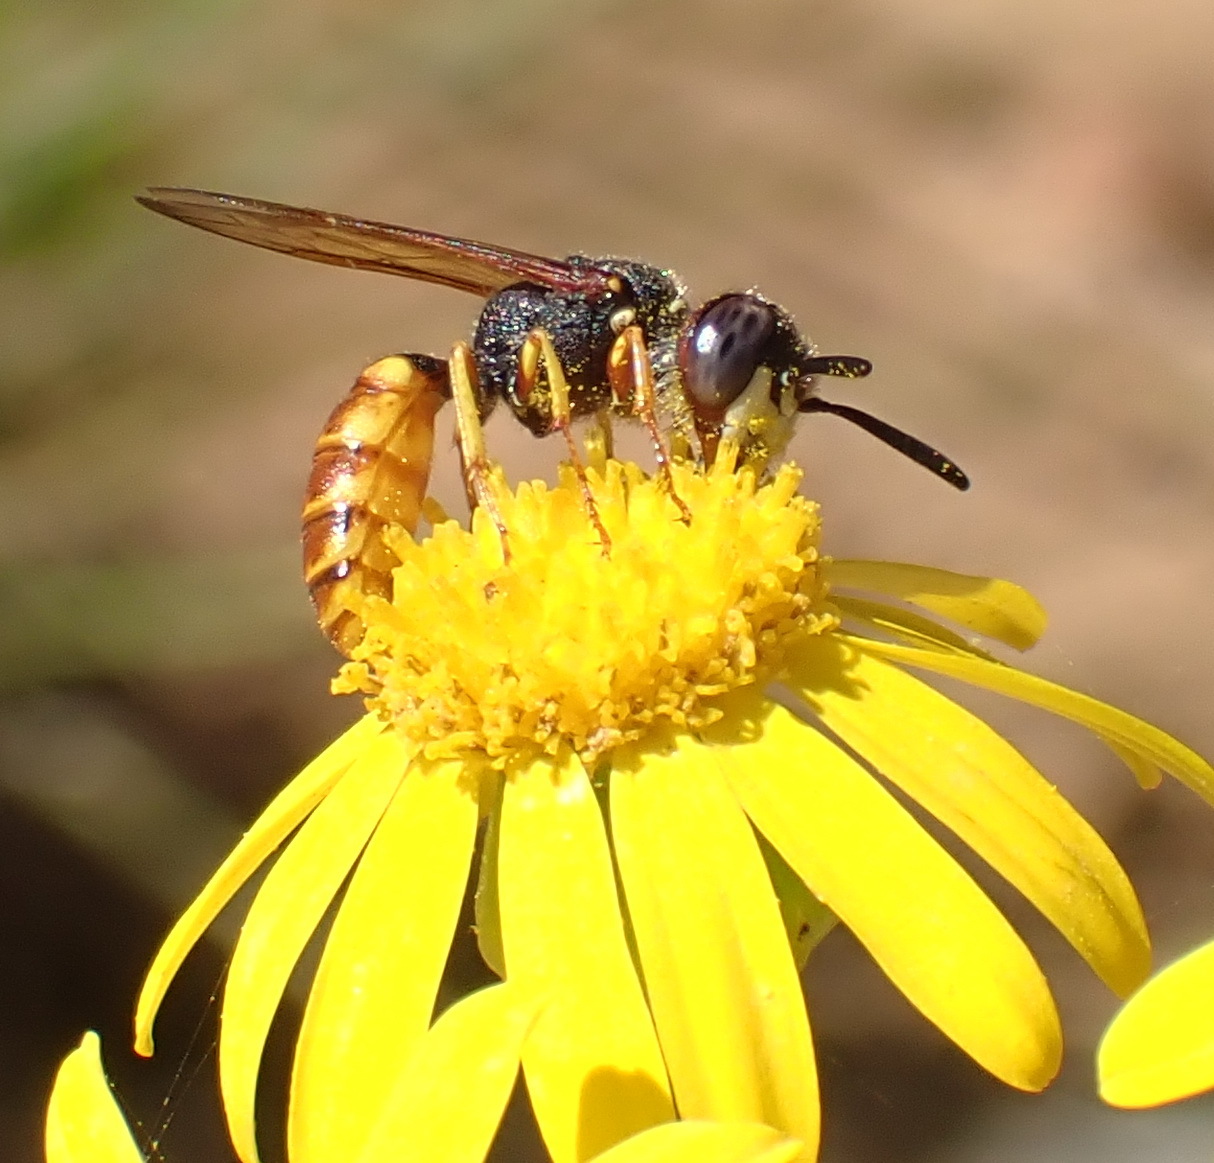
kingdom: Animalia
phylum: Arthropoda
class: Insecta
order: Hymenoptera
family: Crabronidae
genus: Philanthus
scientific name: Philanthus triangulum
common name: Bee wolf
